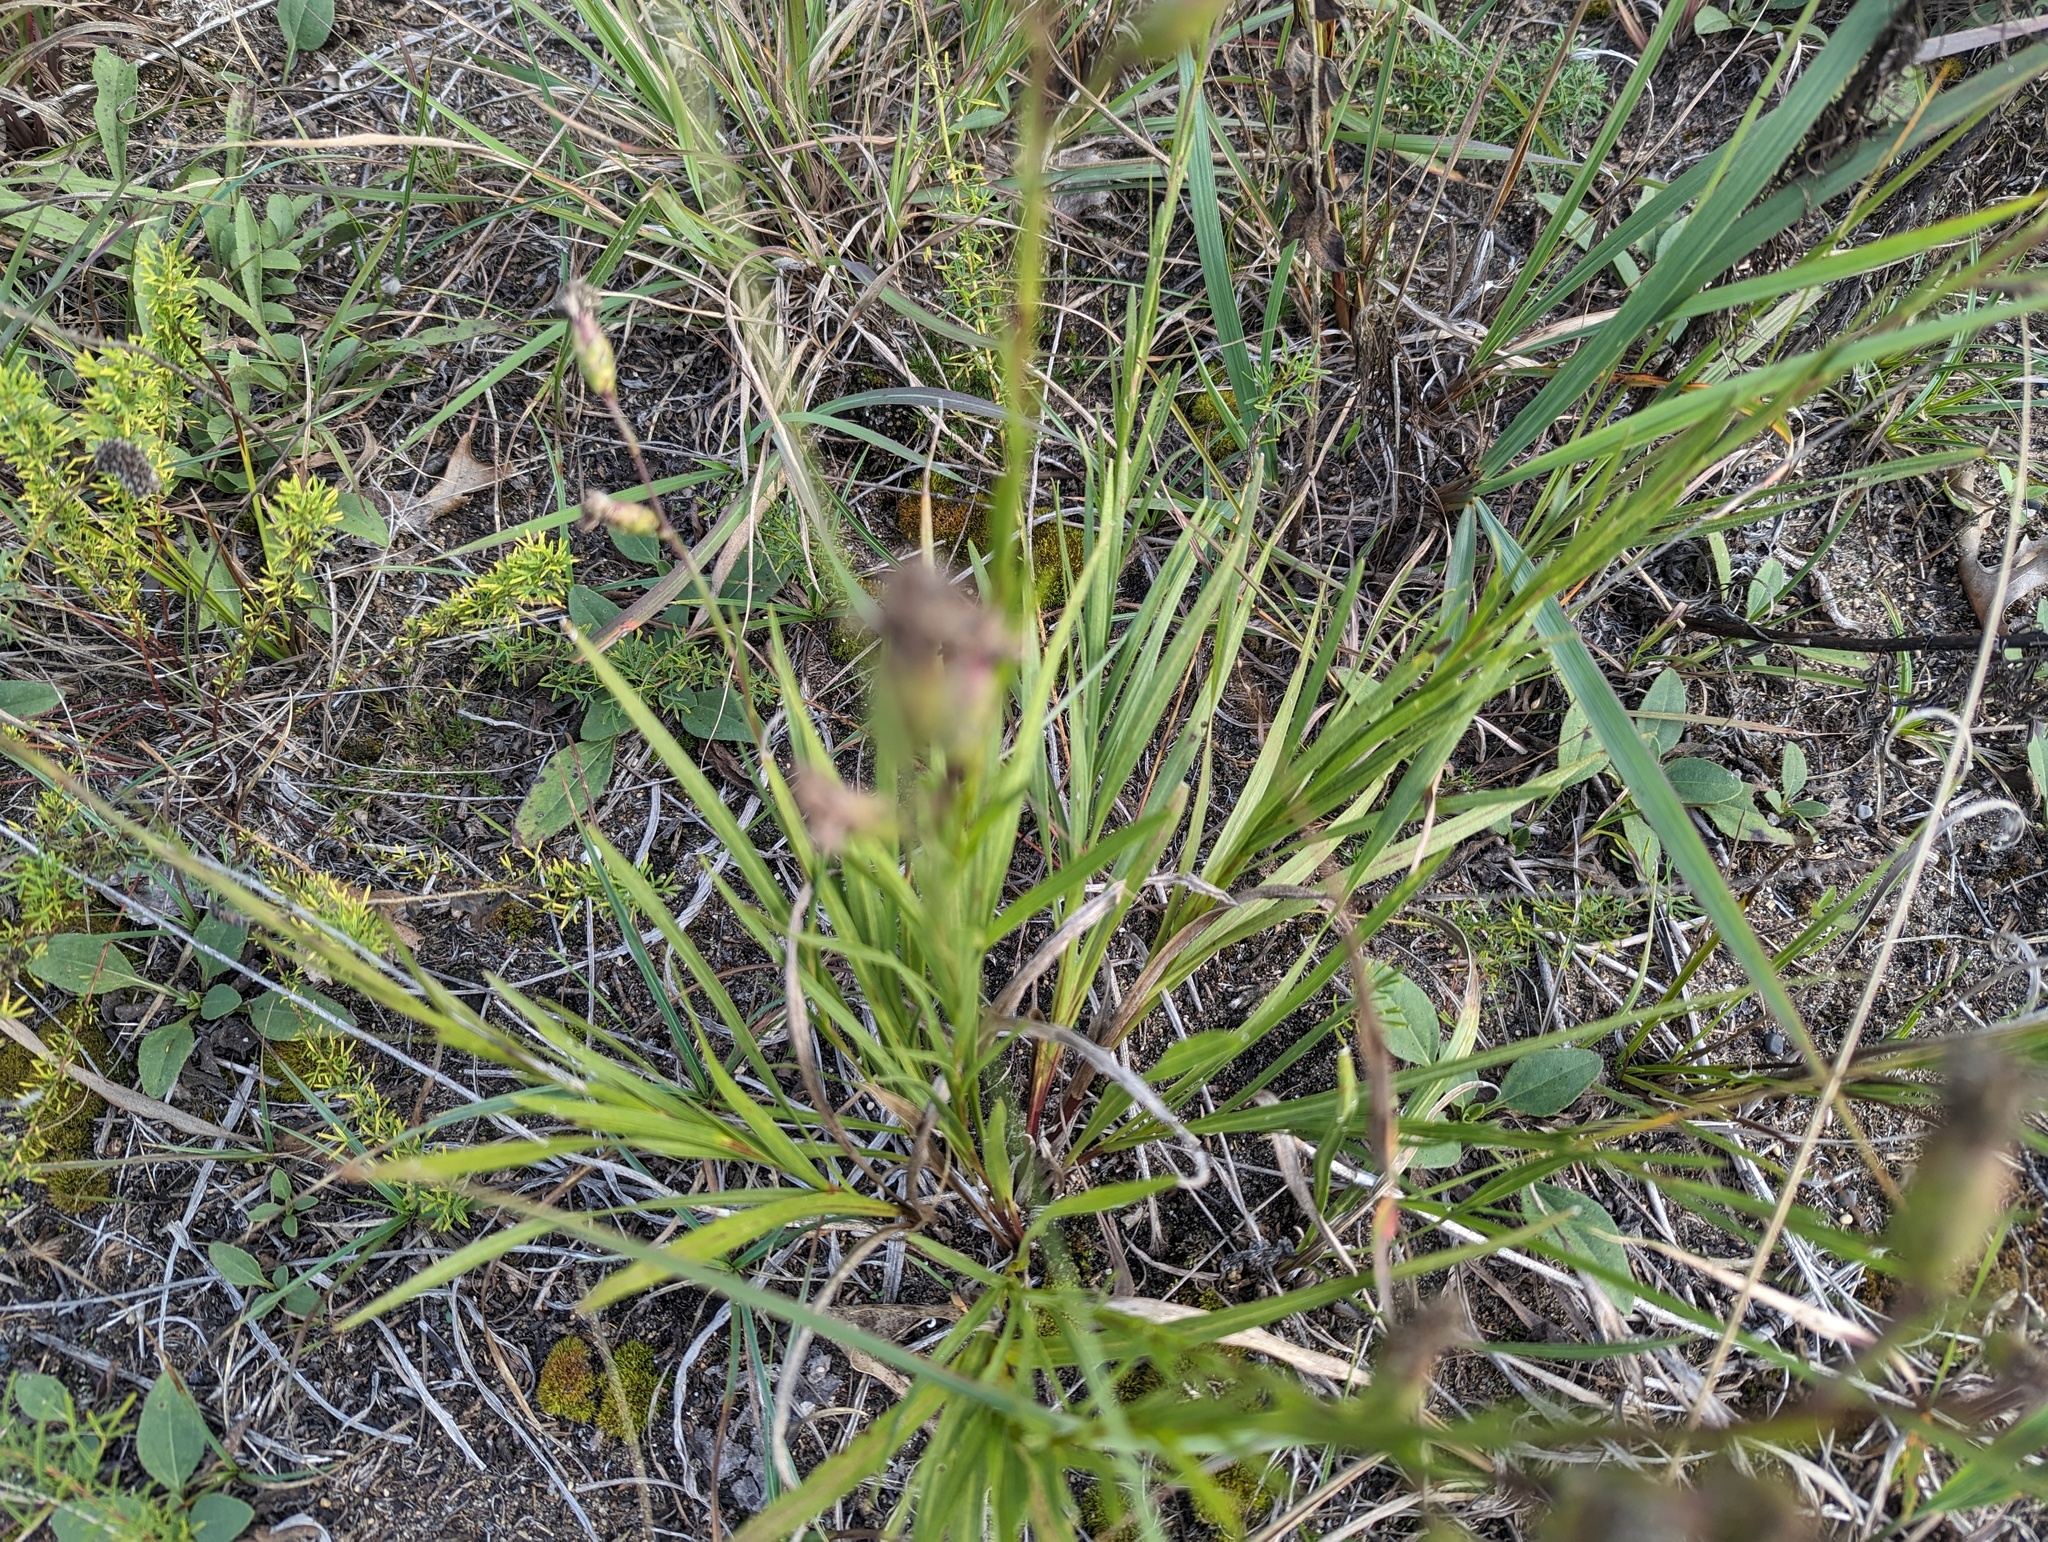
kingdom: Plantae
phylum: Tracheophyta
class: Magnoliopsida
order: Asterales
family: Asteraceae
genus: Liatris
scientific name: Liatris cylindracea
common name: Few-head blazingstar
